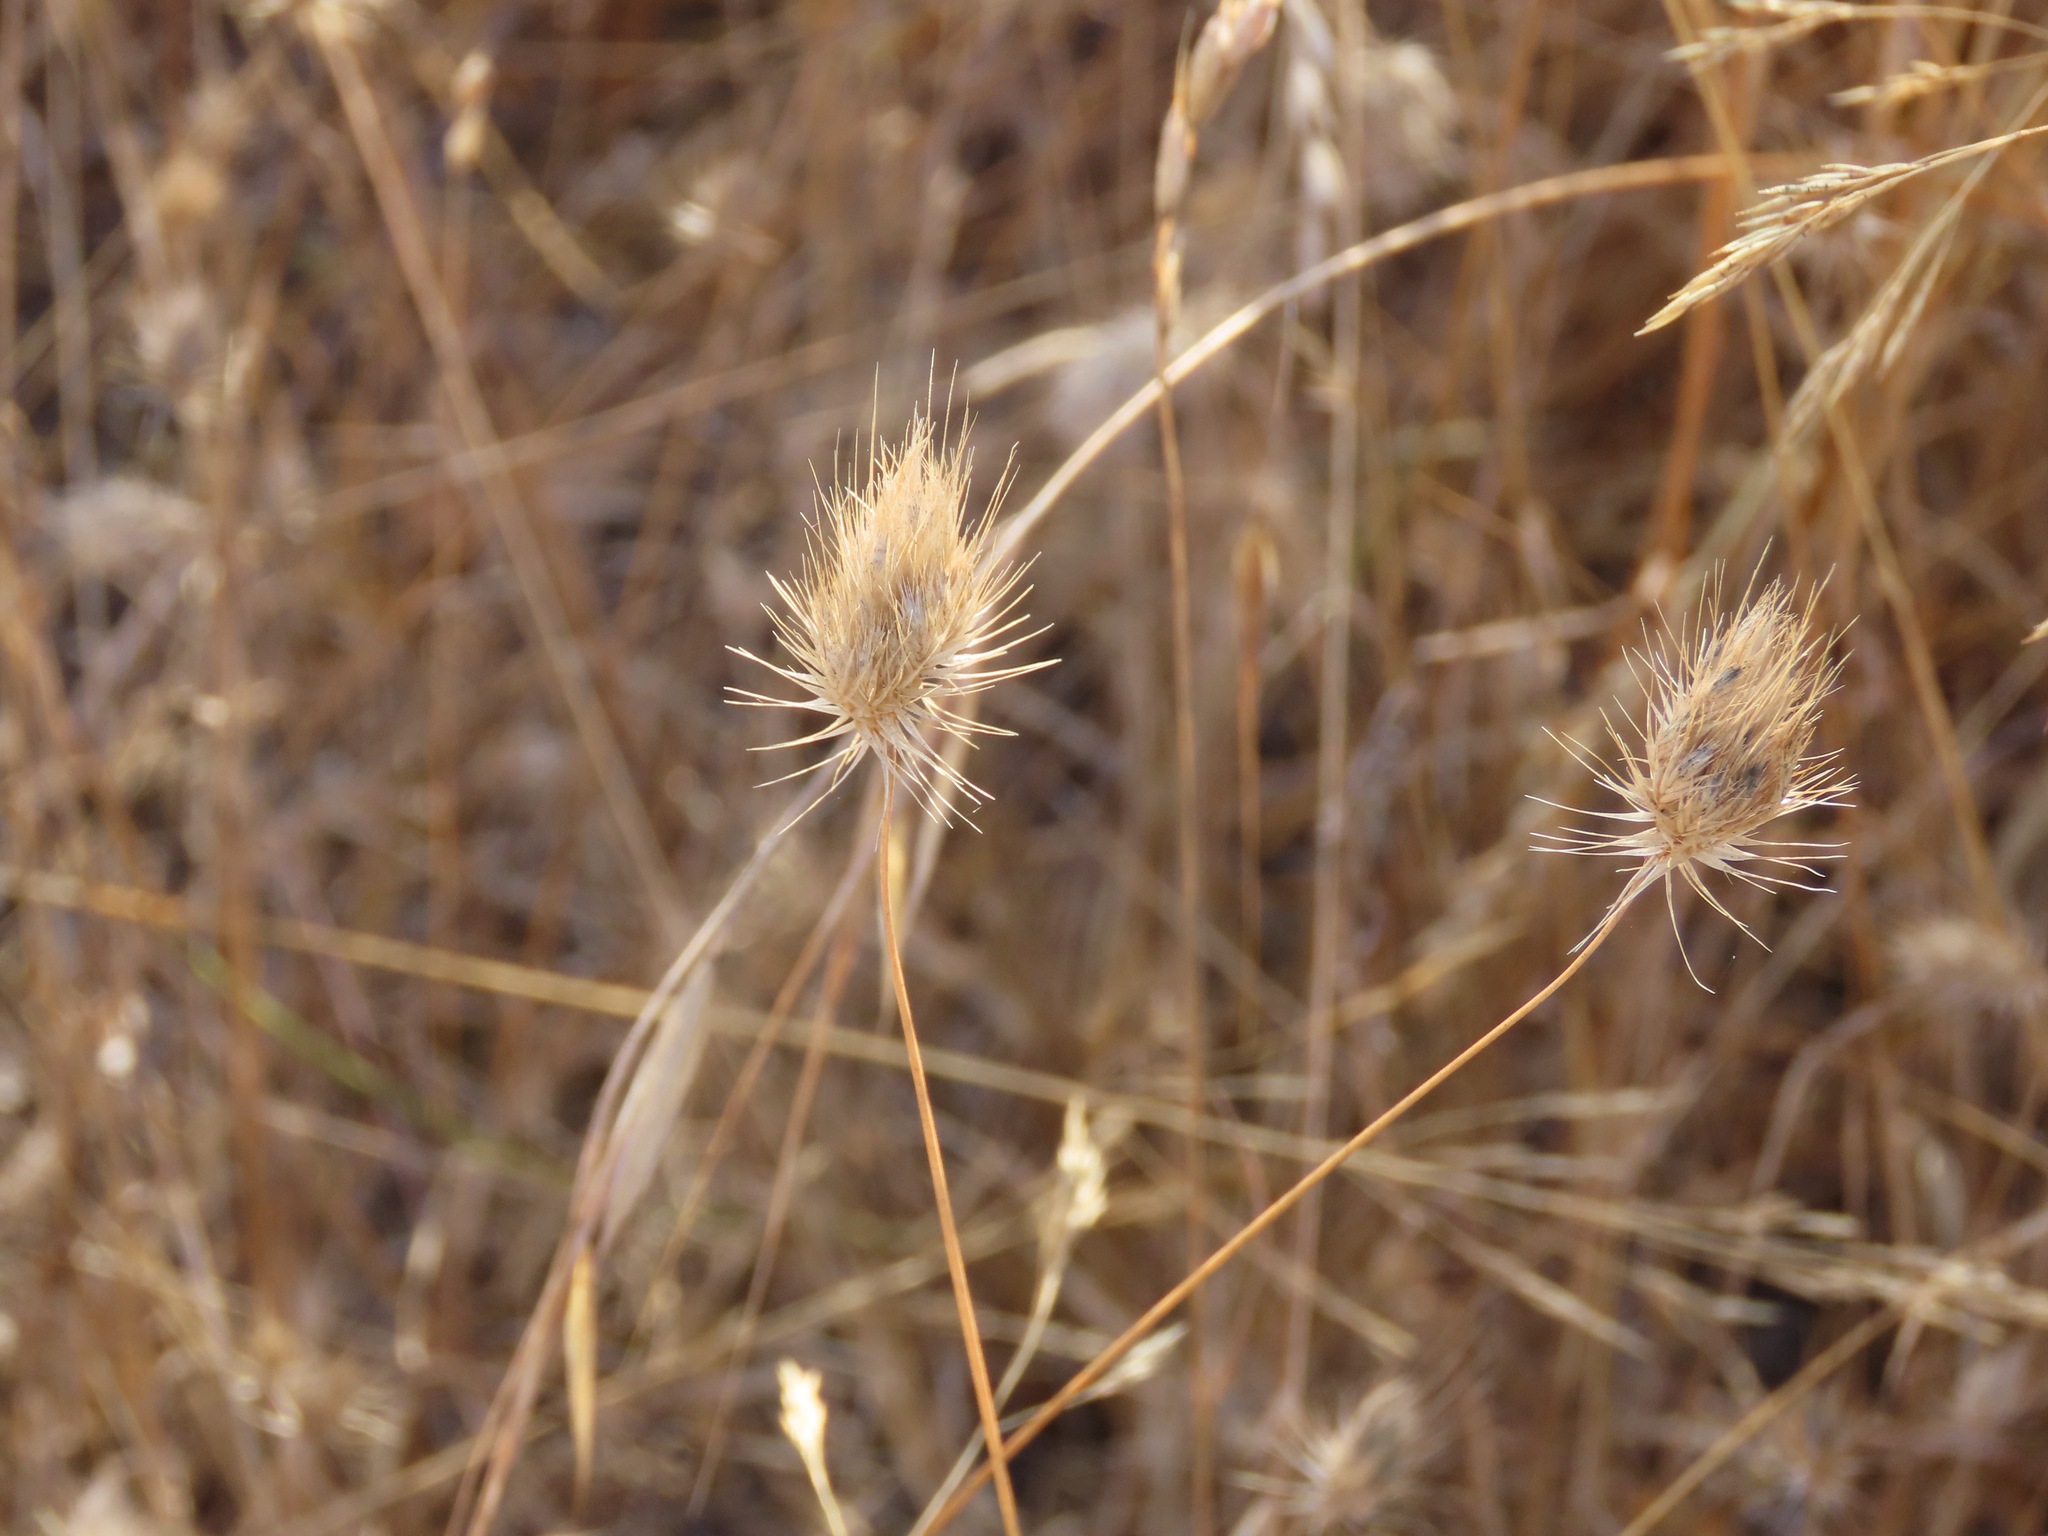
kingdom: Plantae
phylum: Tracheophyta
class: Liliopsida
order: Poales
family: Poaceae
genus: Cynosurus
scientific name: Cynosurus echinatus
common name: Rough dog's-tail
